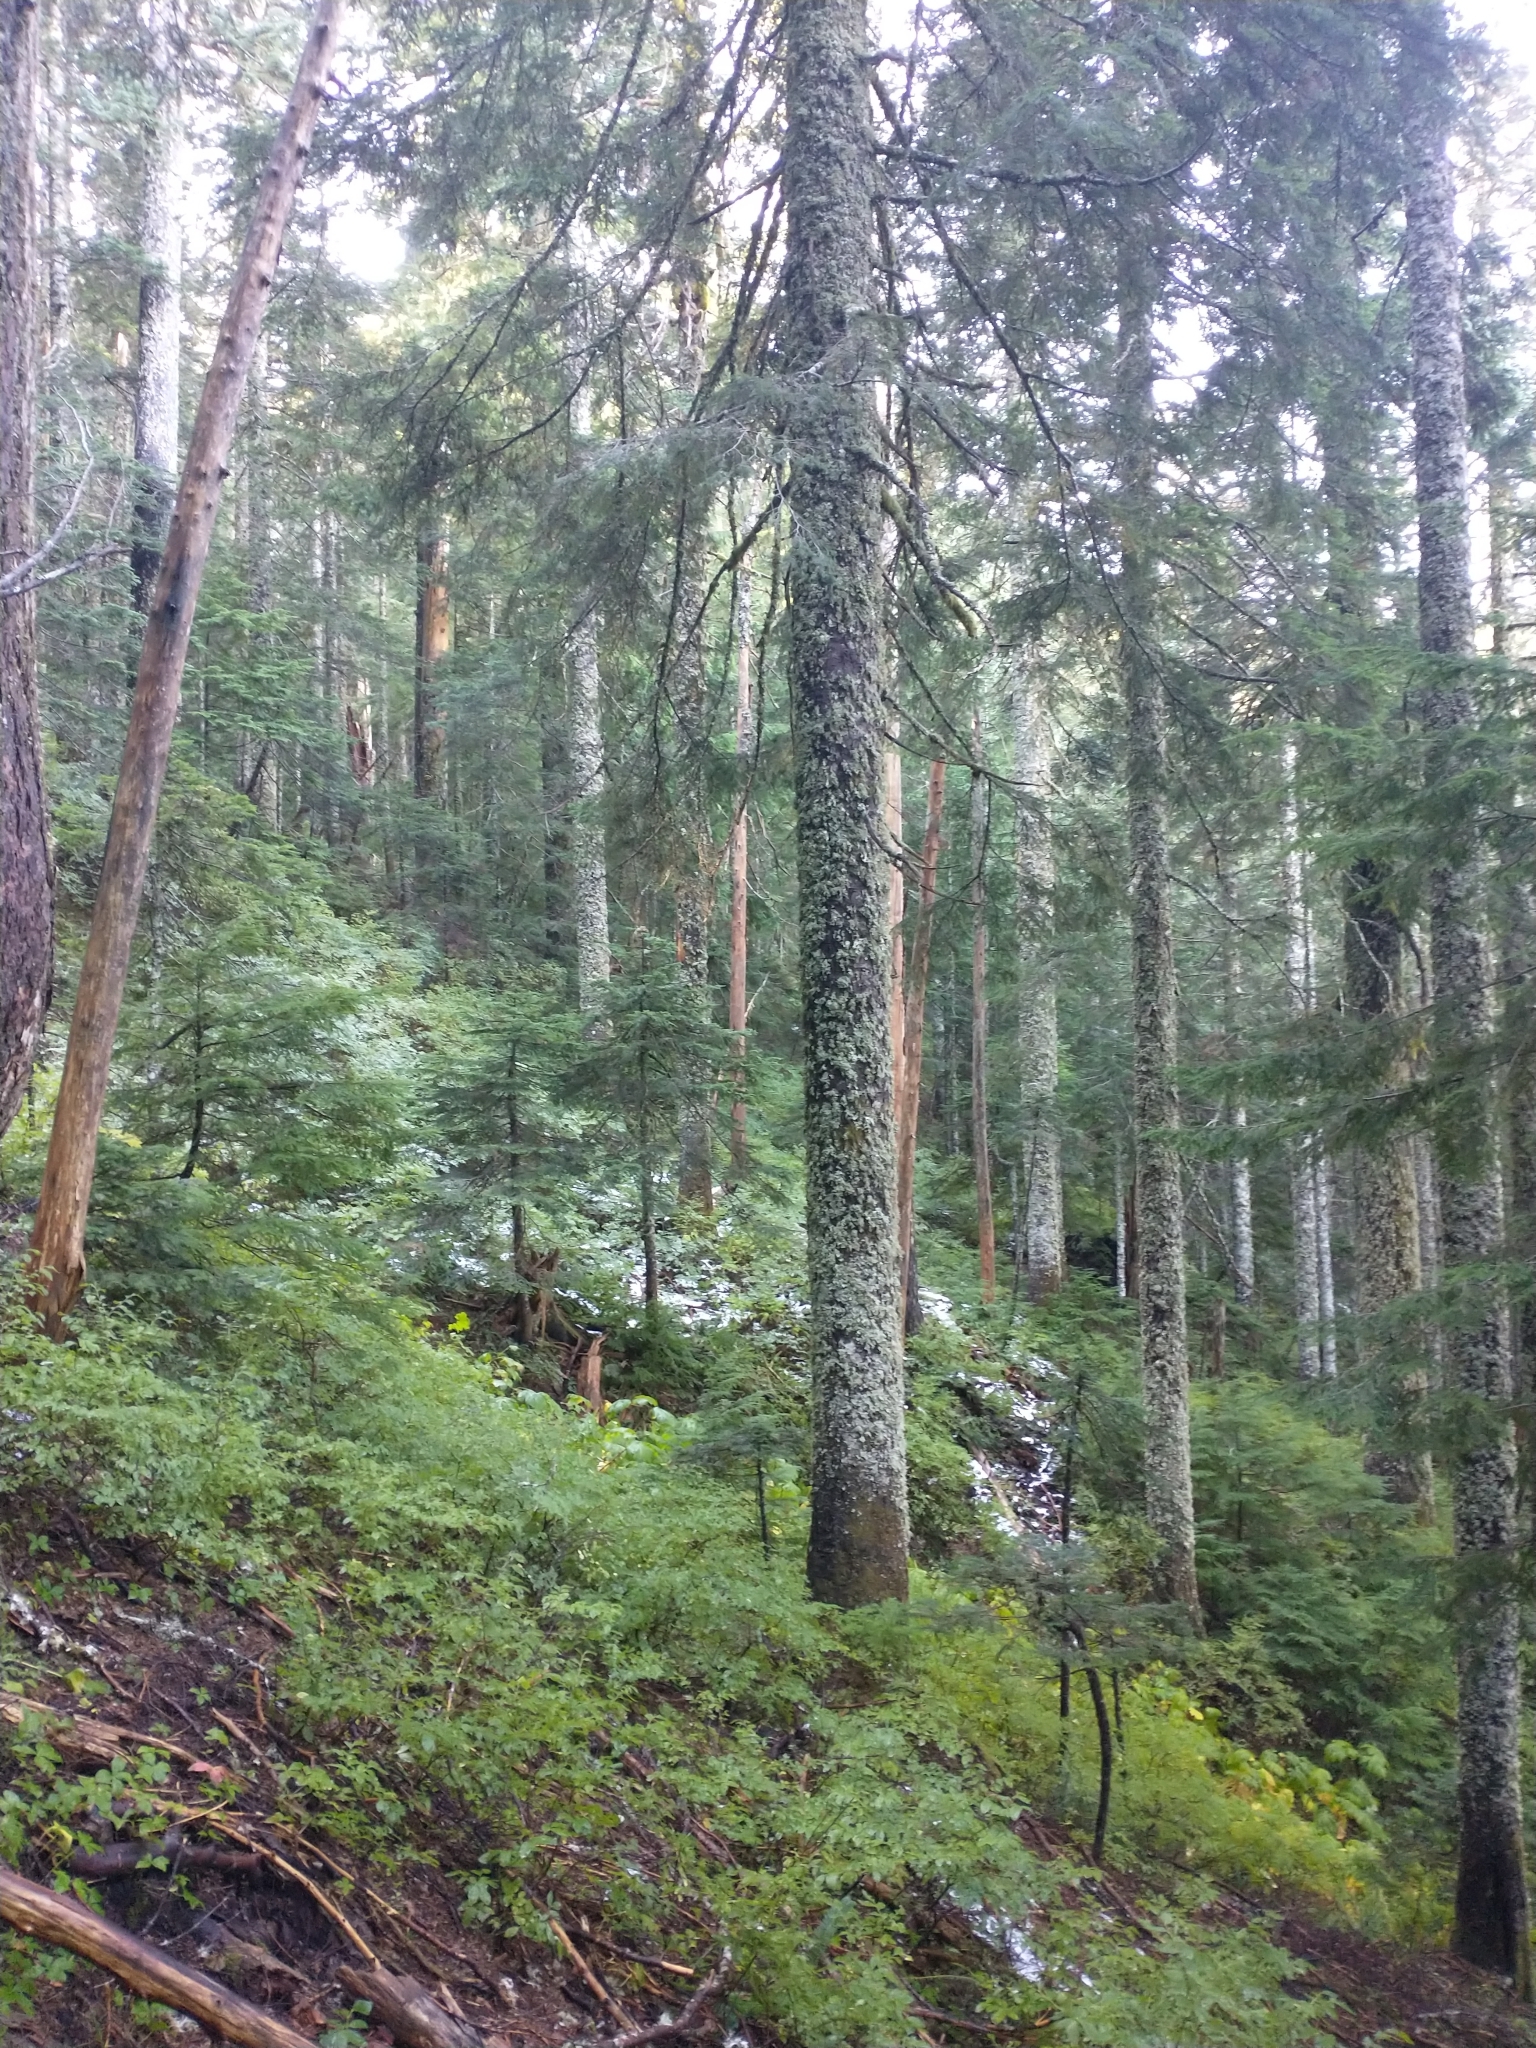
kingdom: Plantae
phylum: Tracheophyta
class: Pinopsida
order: Pinales
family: Pinaceae
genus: Tsuga
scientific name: Tsuga heterophylla
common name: Western hemlock
